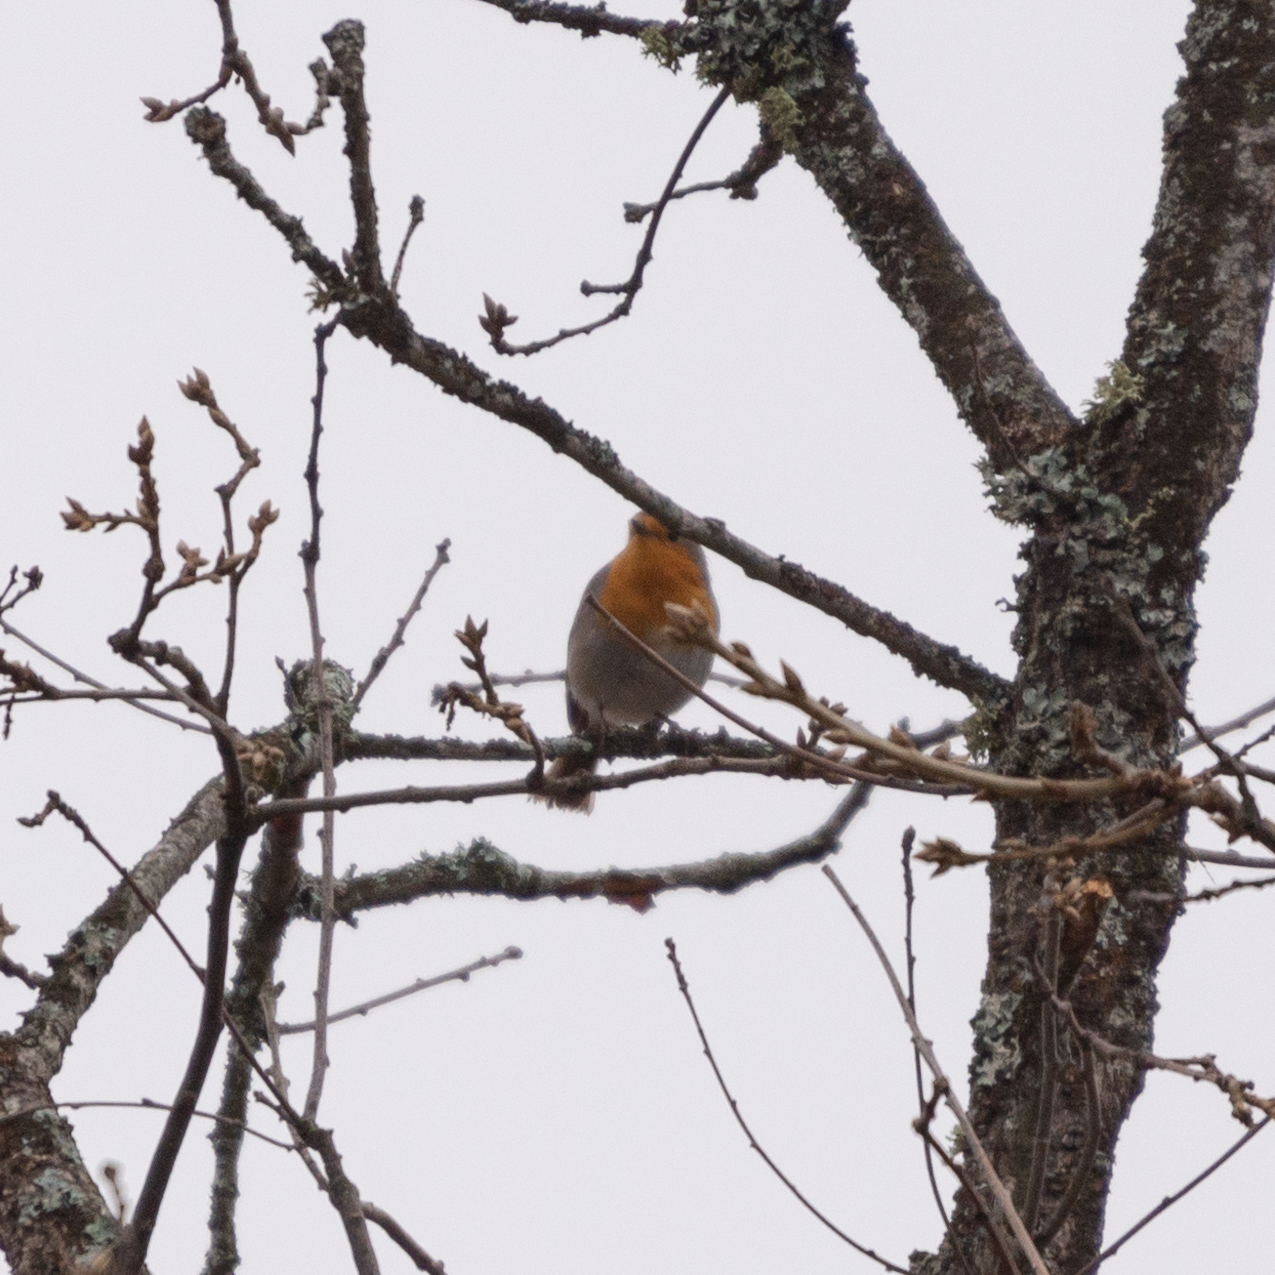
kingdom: Animalia
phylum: Chordata
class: Aves
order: Passeriformes
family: Muscicapidae
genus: Erithacus
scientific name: Erithacus rubecula
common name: European robin
